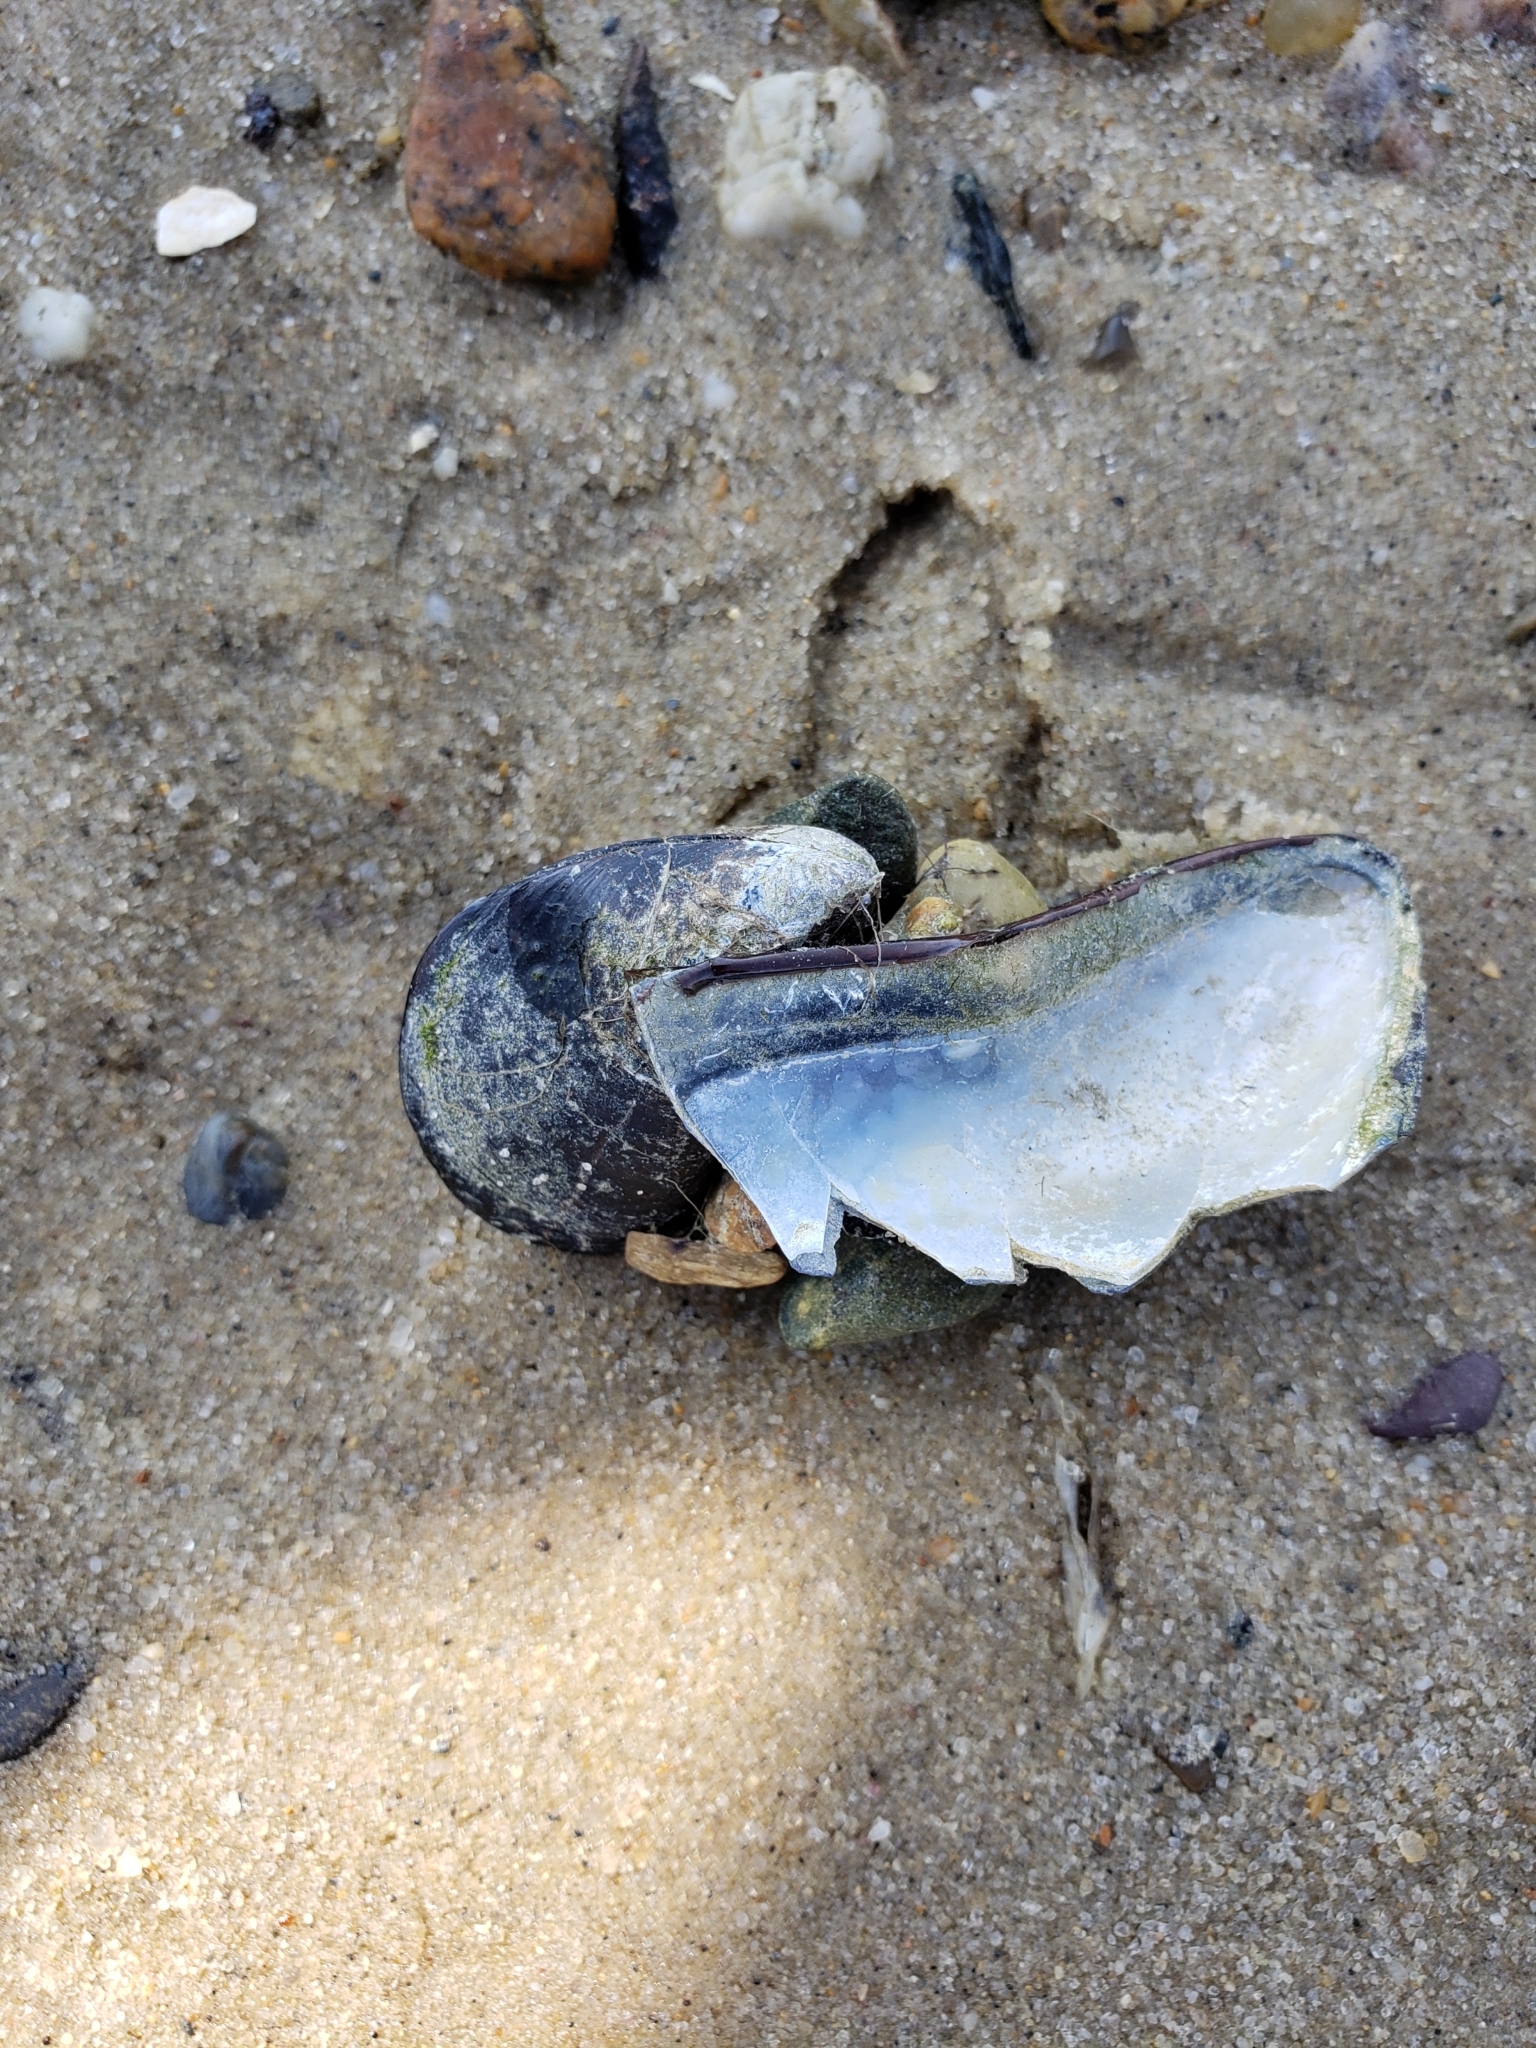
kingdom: Animalia
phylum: Mollusca
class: Bivalvia
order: Mytilida
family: Mytilidae
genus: Mytilus
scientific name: Mytilus edulis
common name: Blue mussel
